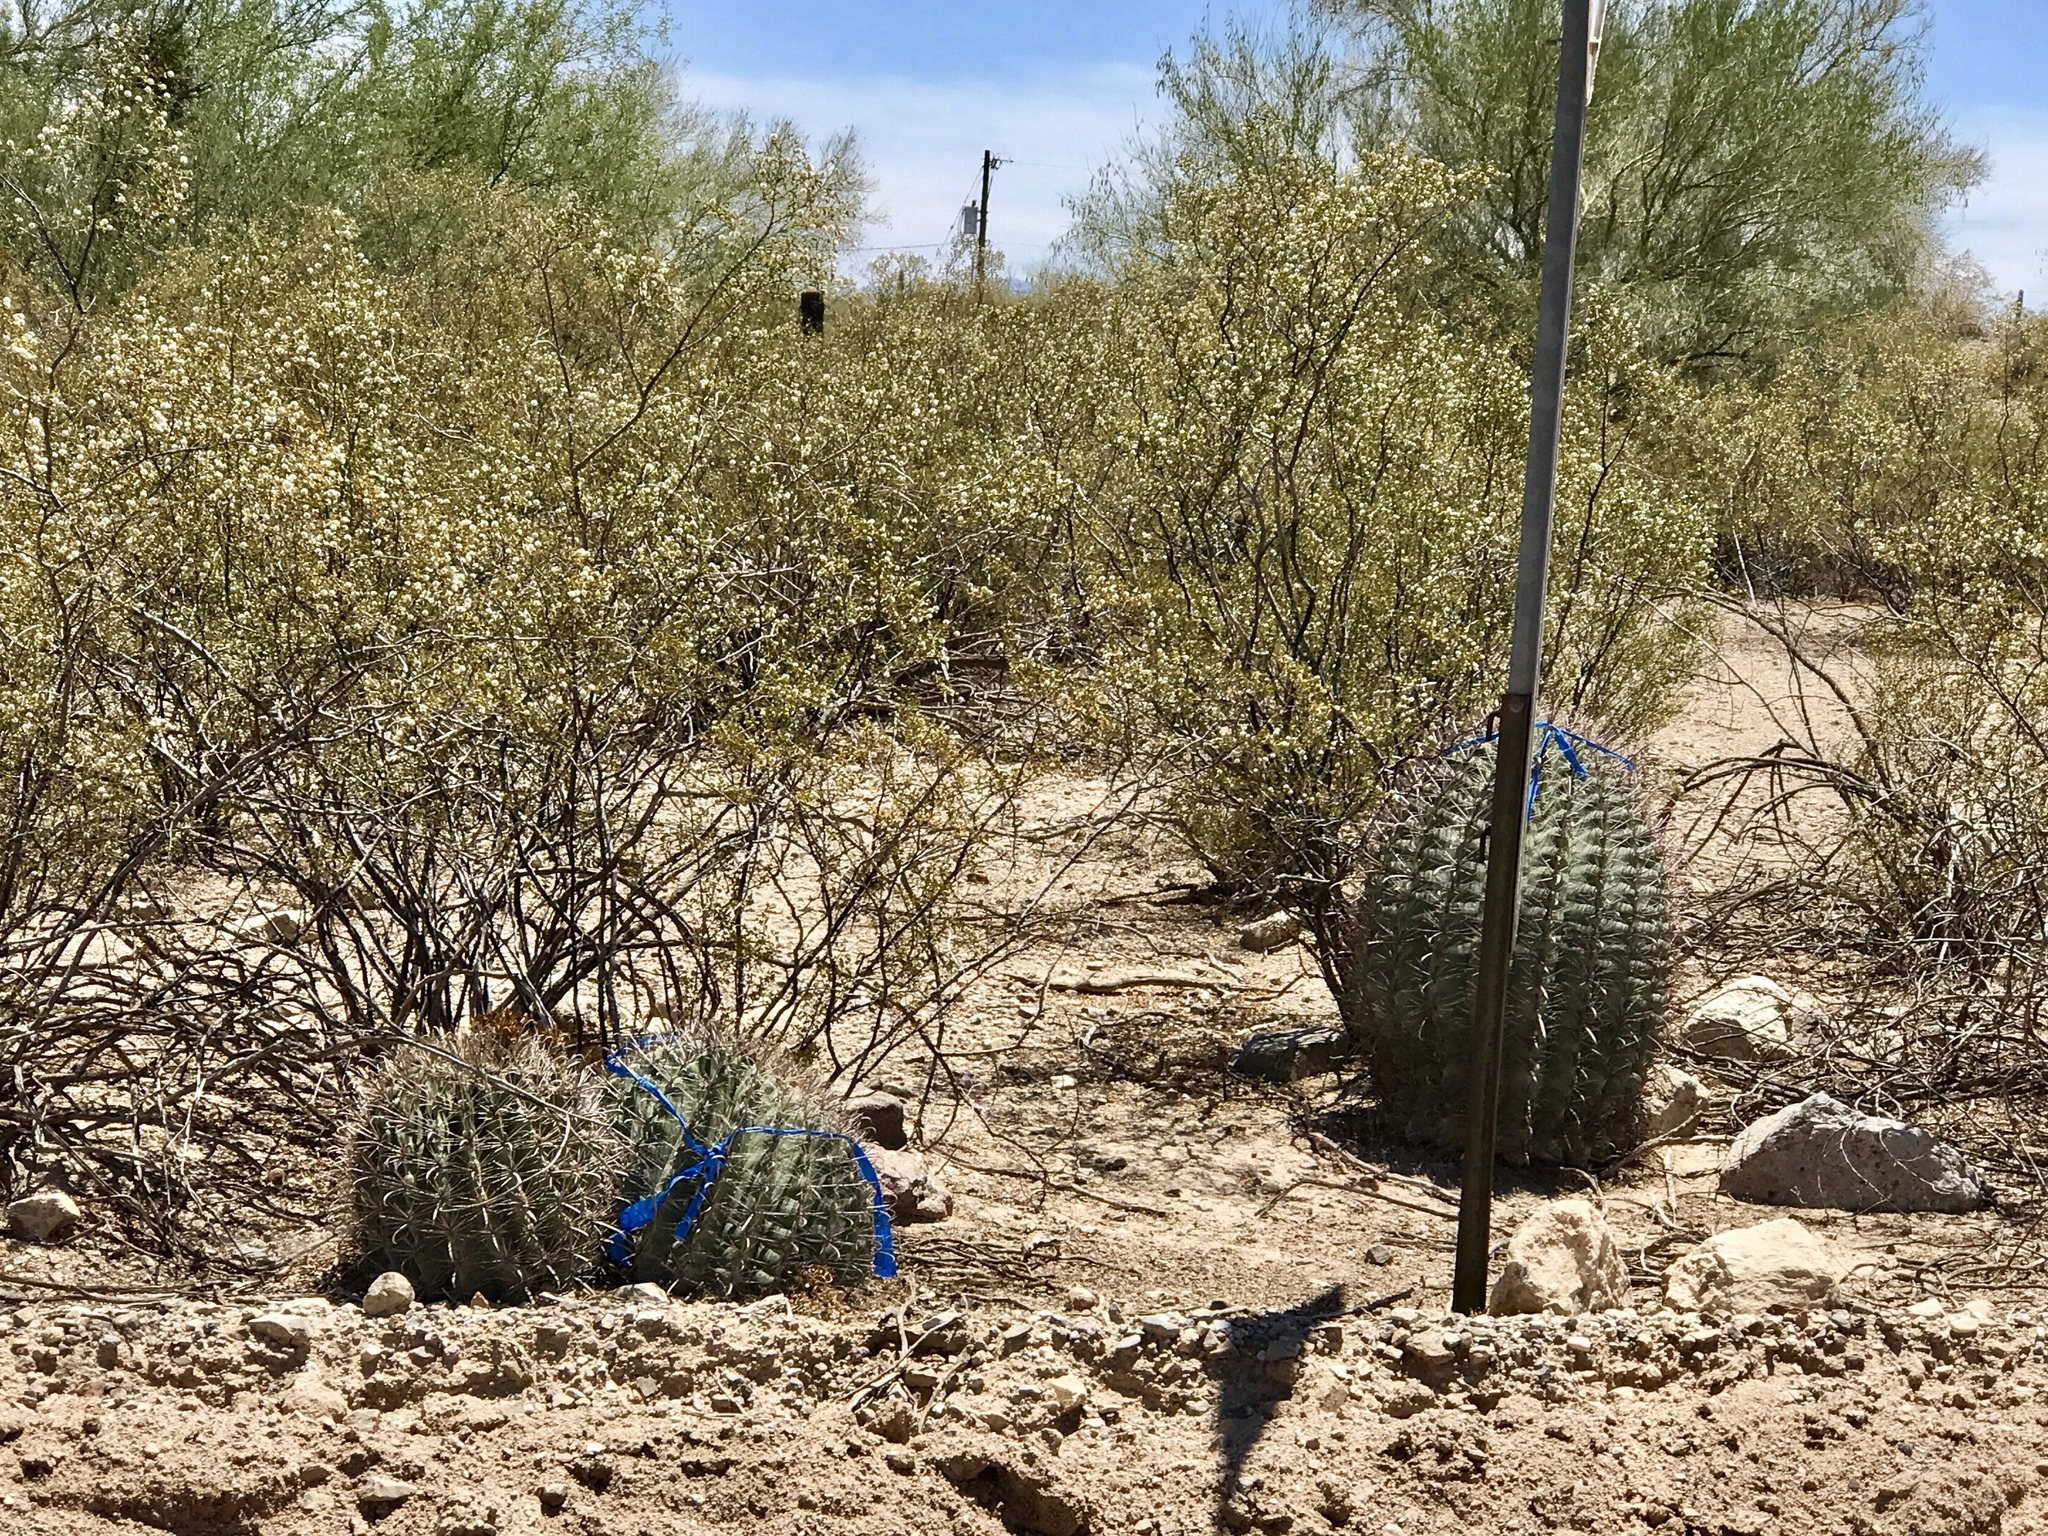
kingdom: Plantae
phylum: Tracheophyta
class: Magnoliopsida
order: Caryophyllales
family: Cactaceae
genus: Ferocactus
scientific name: Ferocactus wislizeni
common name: Candy barrel cactus
